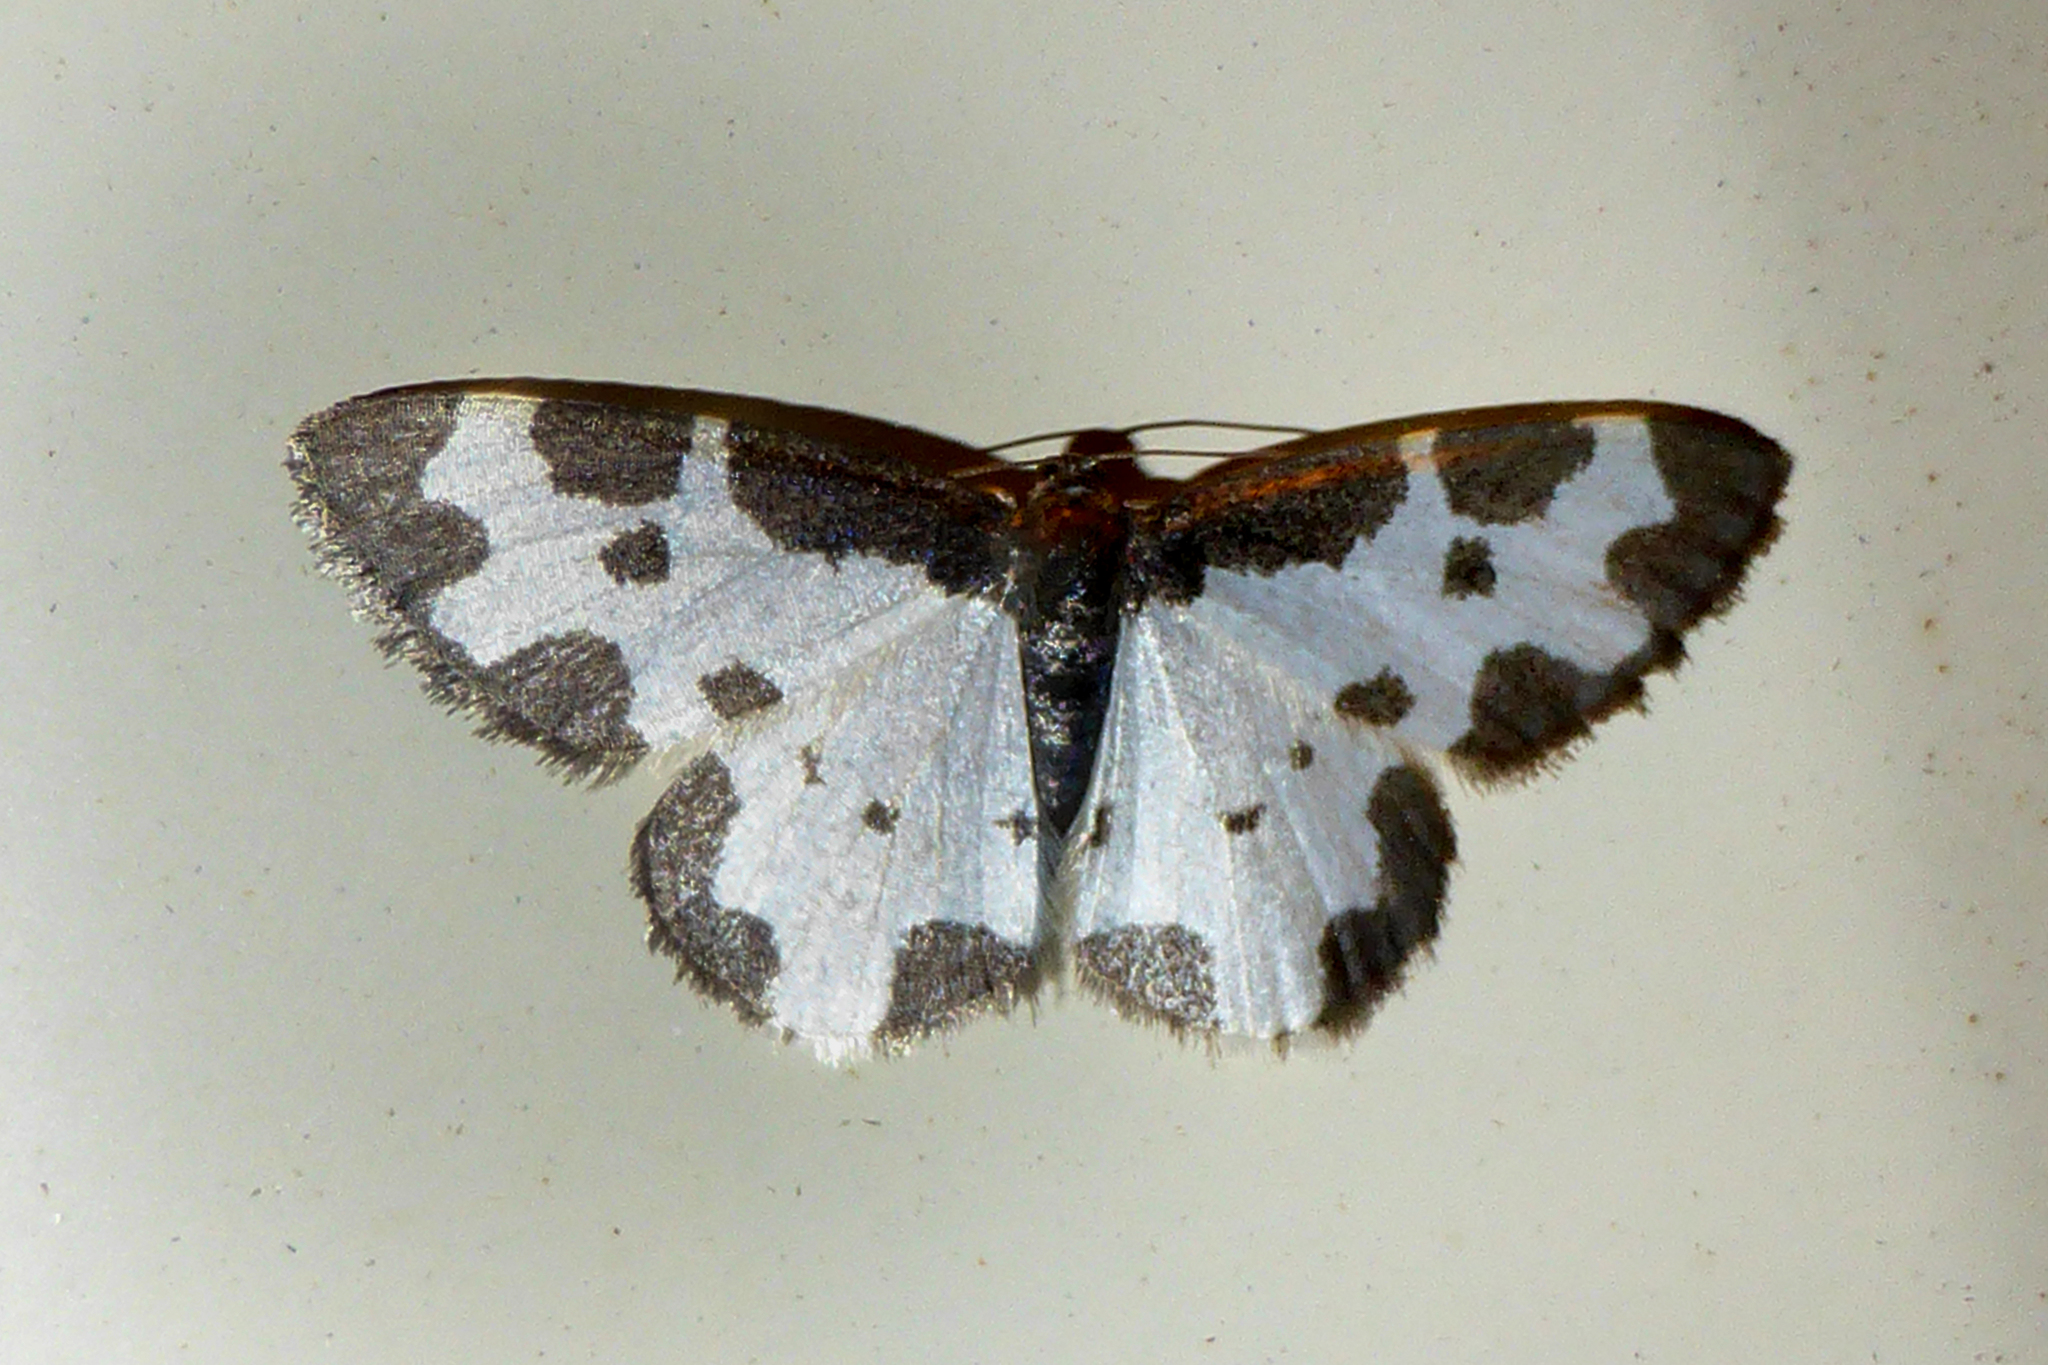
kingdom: Animalia
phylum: Arthropoda
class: Insecta
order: Lepidoptera
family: Geometridae
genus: Lomaspilis
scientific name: Lomaspilis marginata
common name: Clouded border
